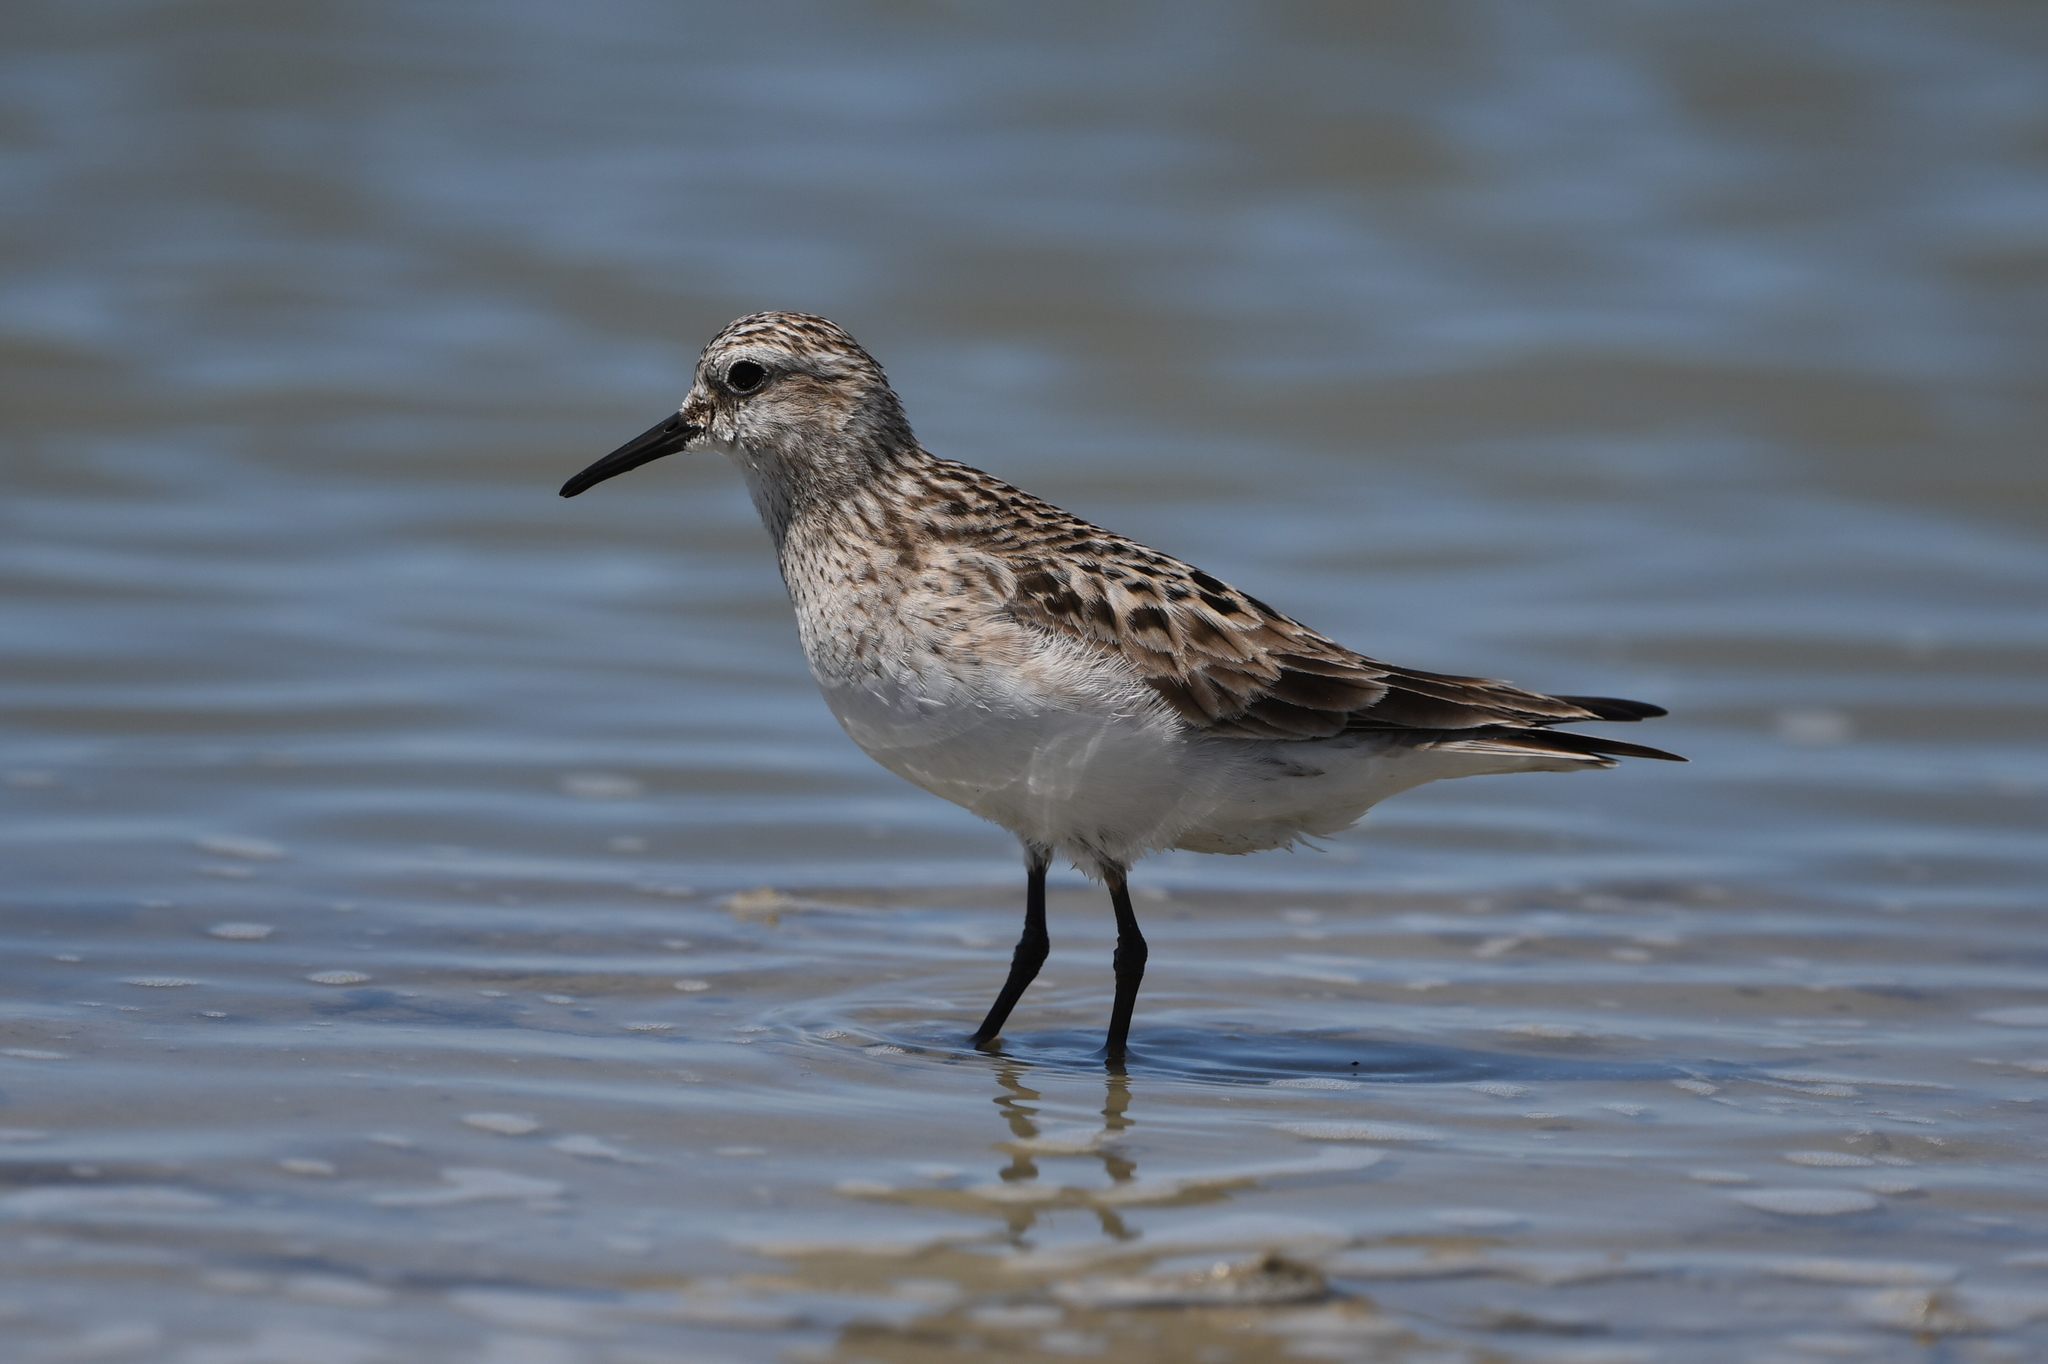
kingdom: Animalia
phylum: Chordata
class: Aves
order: Charadriiformes
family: Scolopacidae
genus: Calidris
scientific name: Calidris bairdii
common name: Baird's sandpiper
